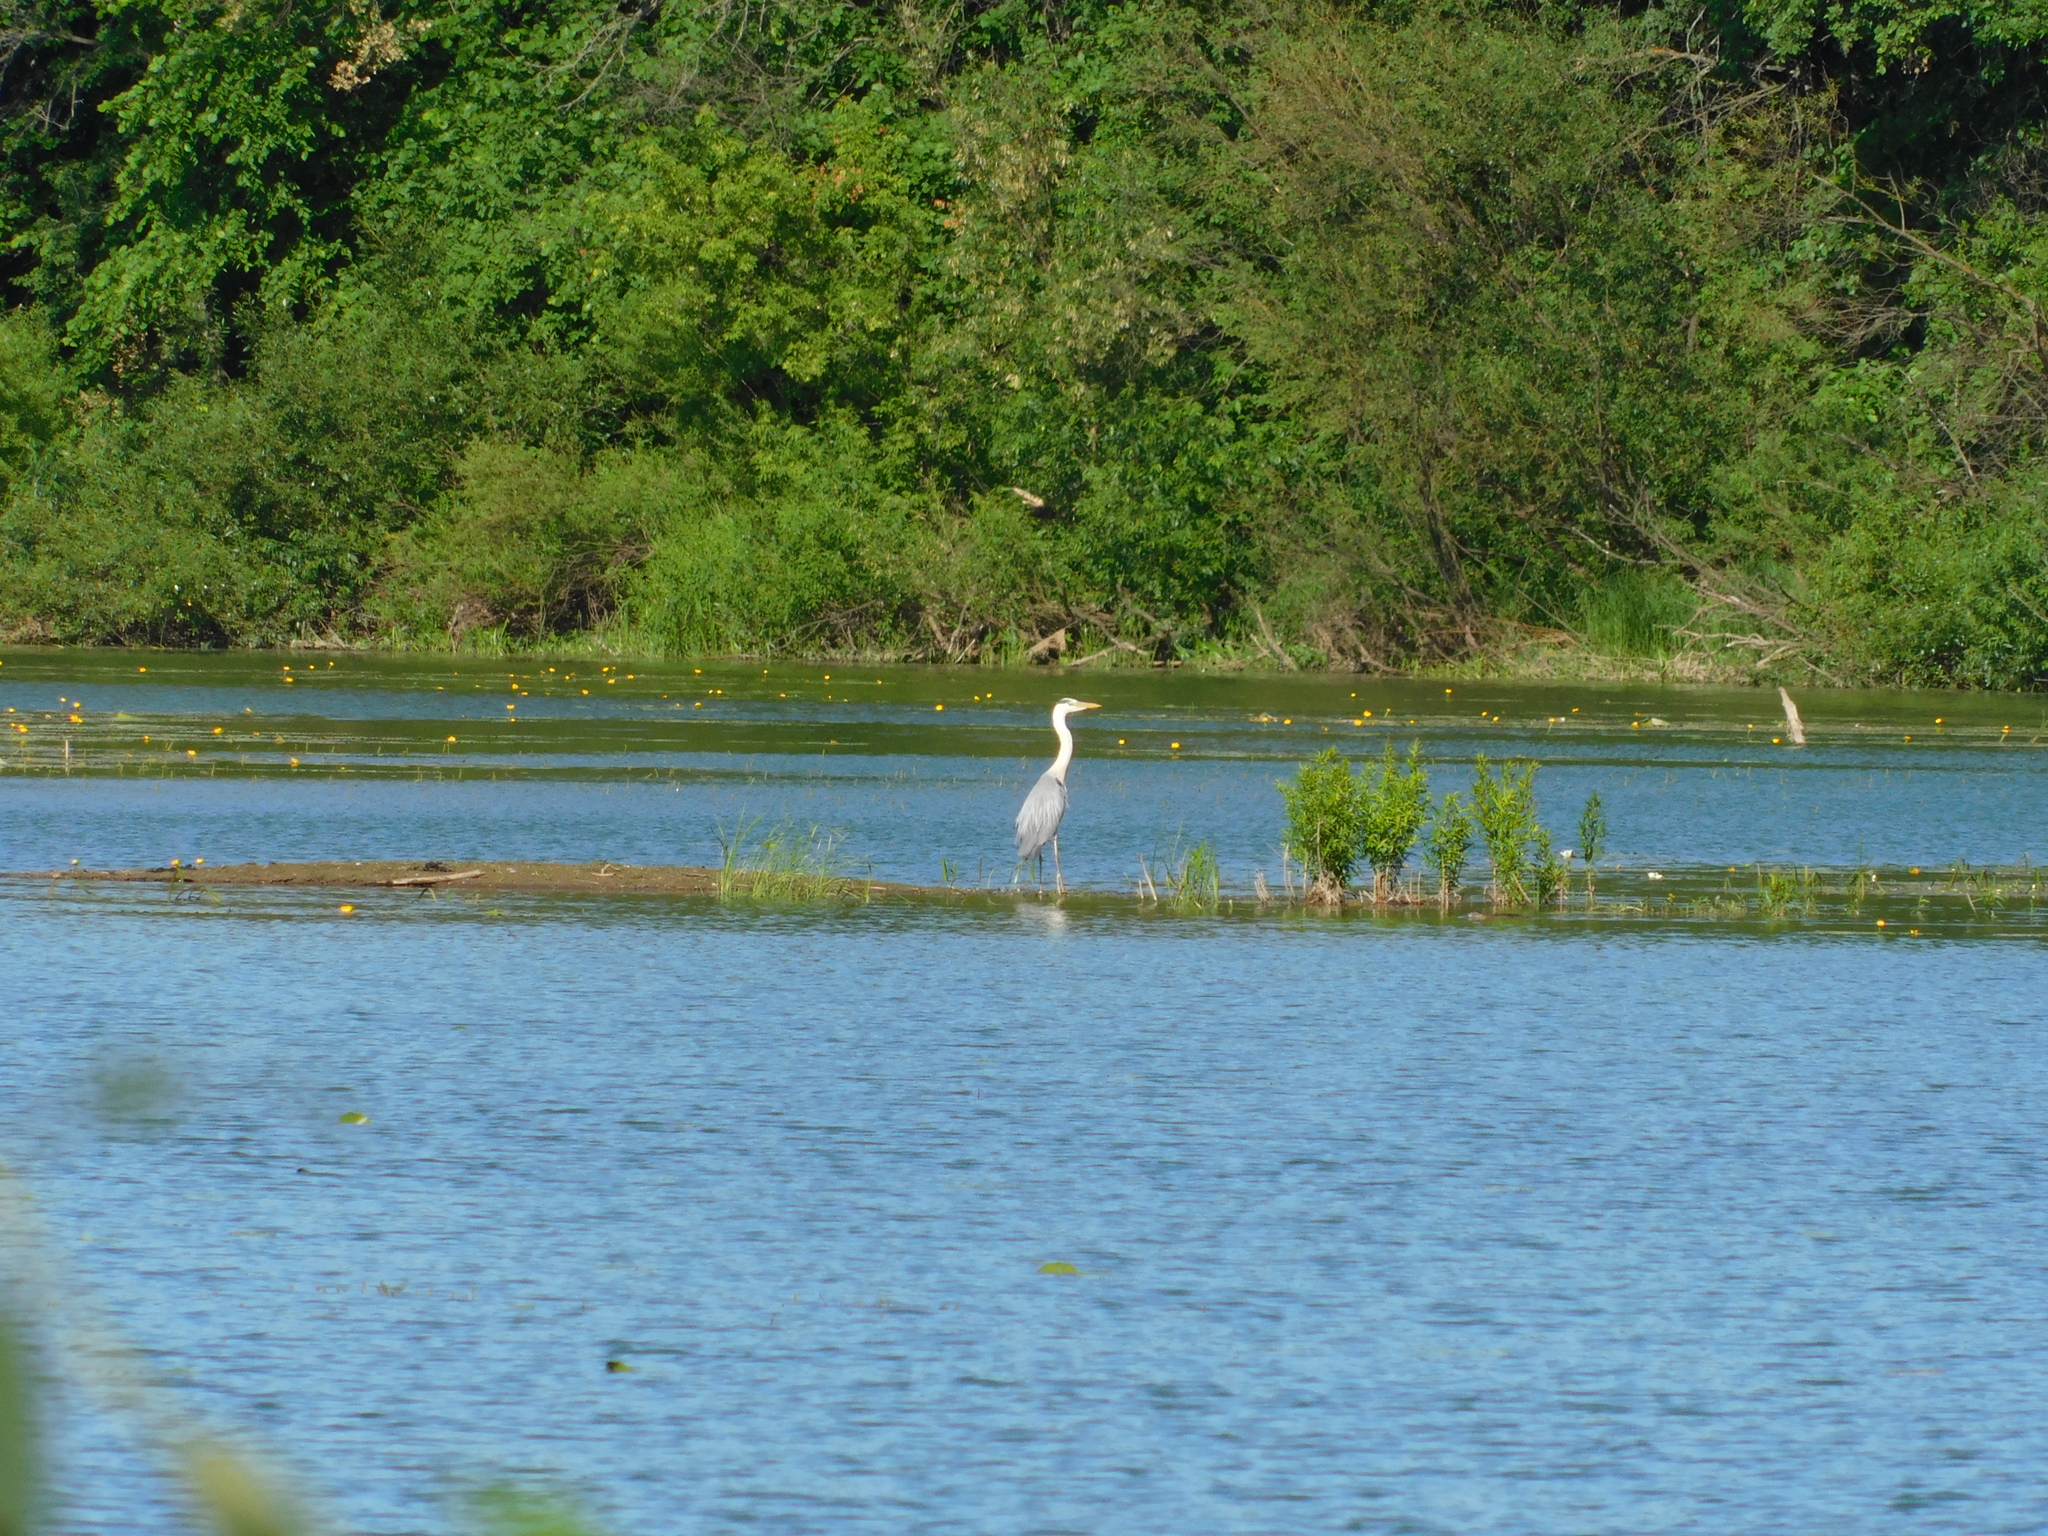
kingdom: Animalia
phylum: Chordata
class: Aves
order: Pelecaniformes
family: Ardeidae
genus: Ardea
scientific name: Ardea cinerea
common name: Grey heron
